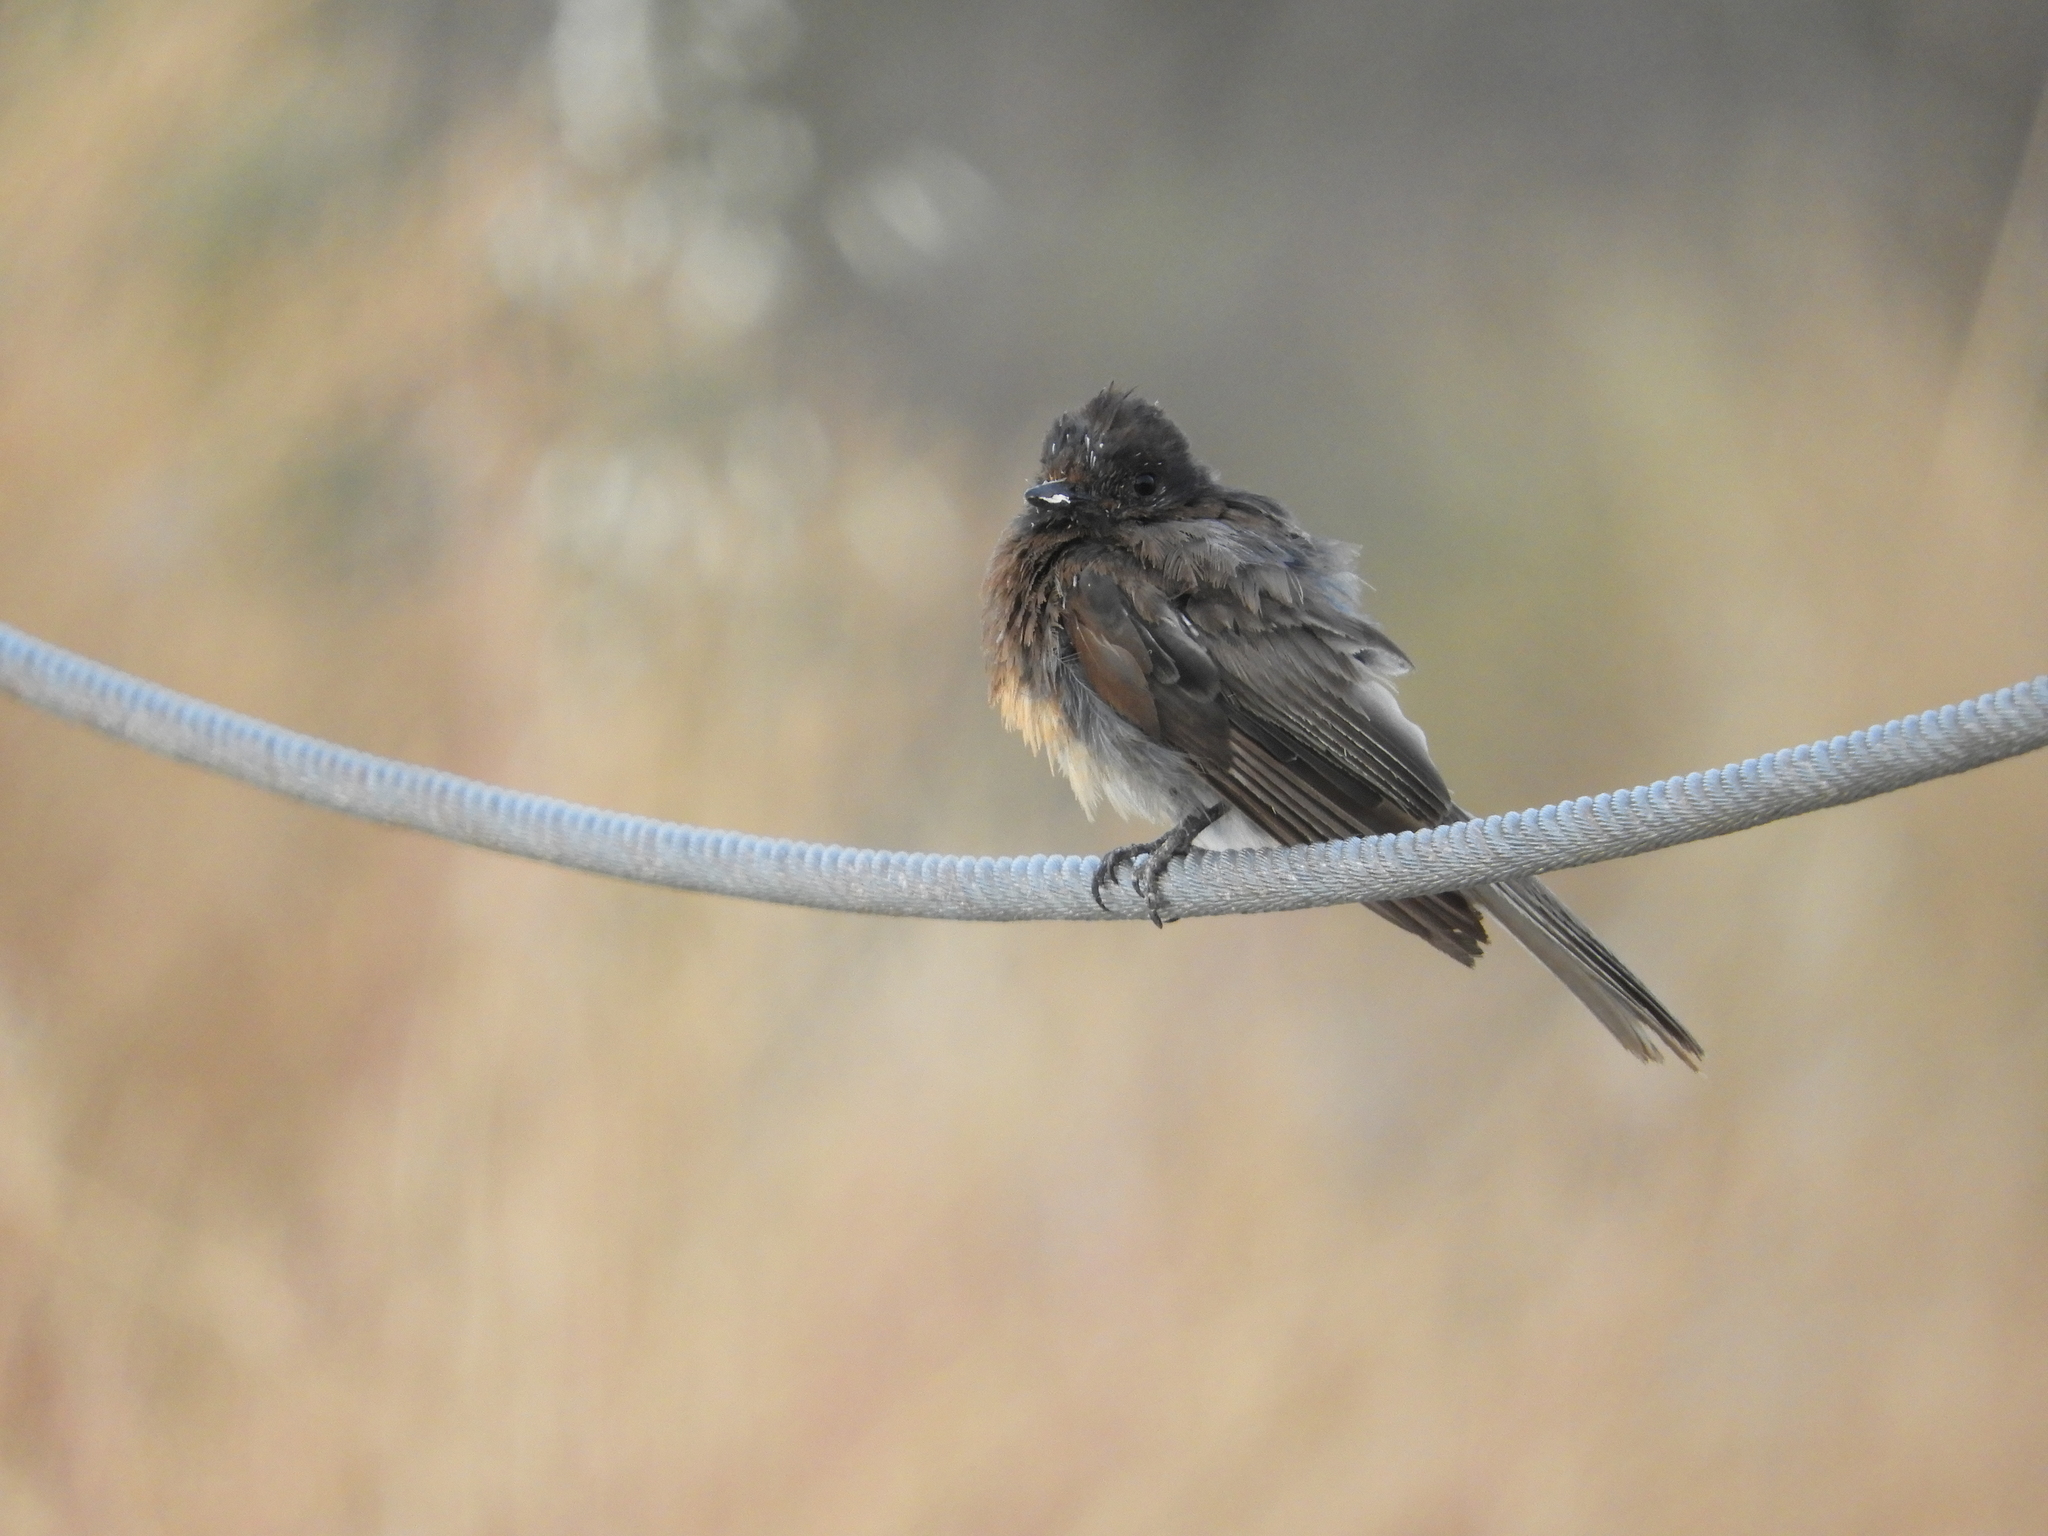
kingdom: Animalia
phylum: Chordata
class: Aves
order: Passeriformes
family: Tyrannidae
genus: Sayornis
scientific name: Sayornis nigricans
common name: Black phoebe
